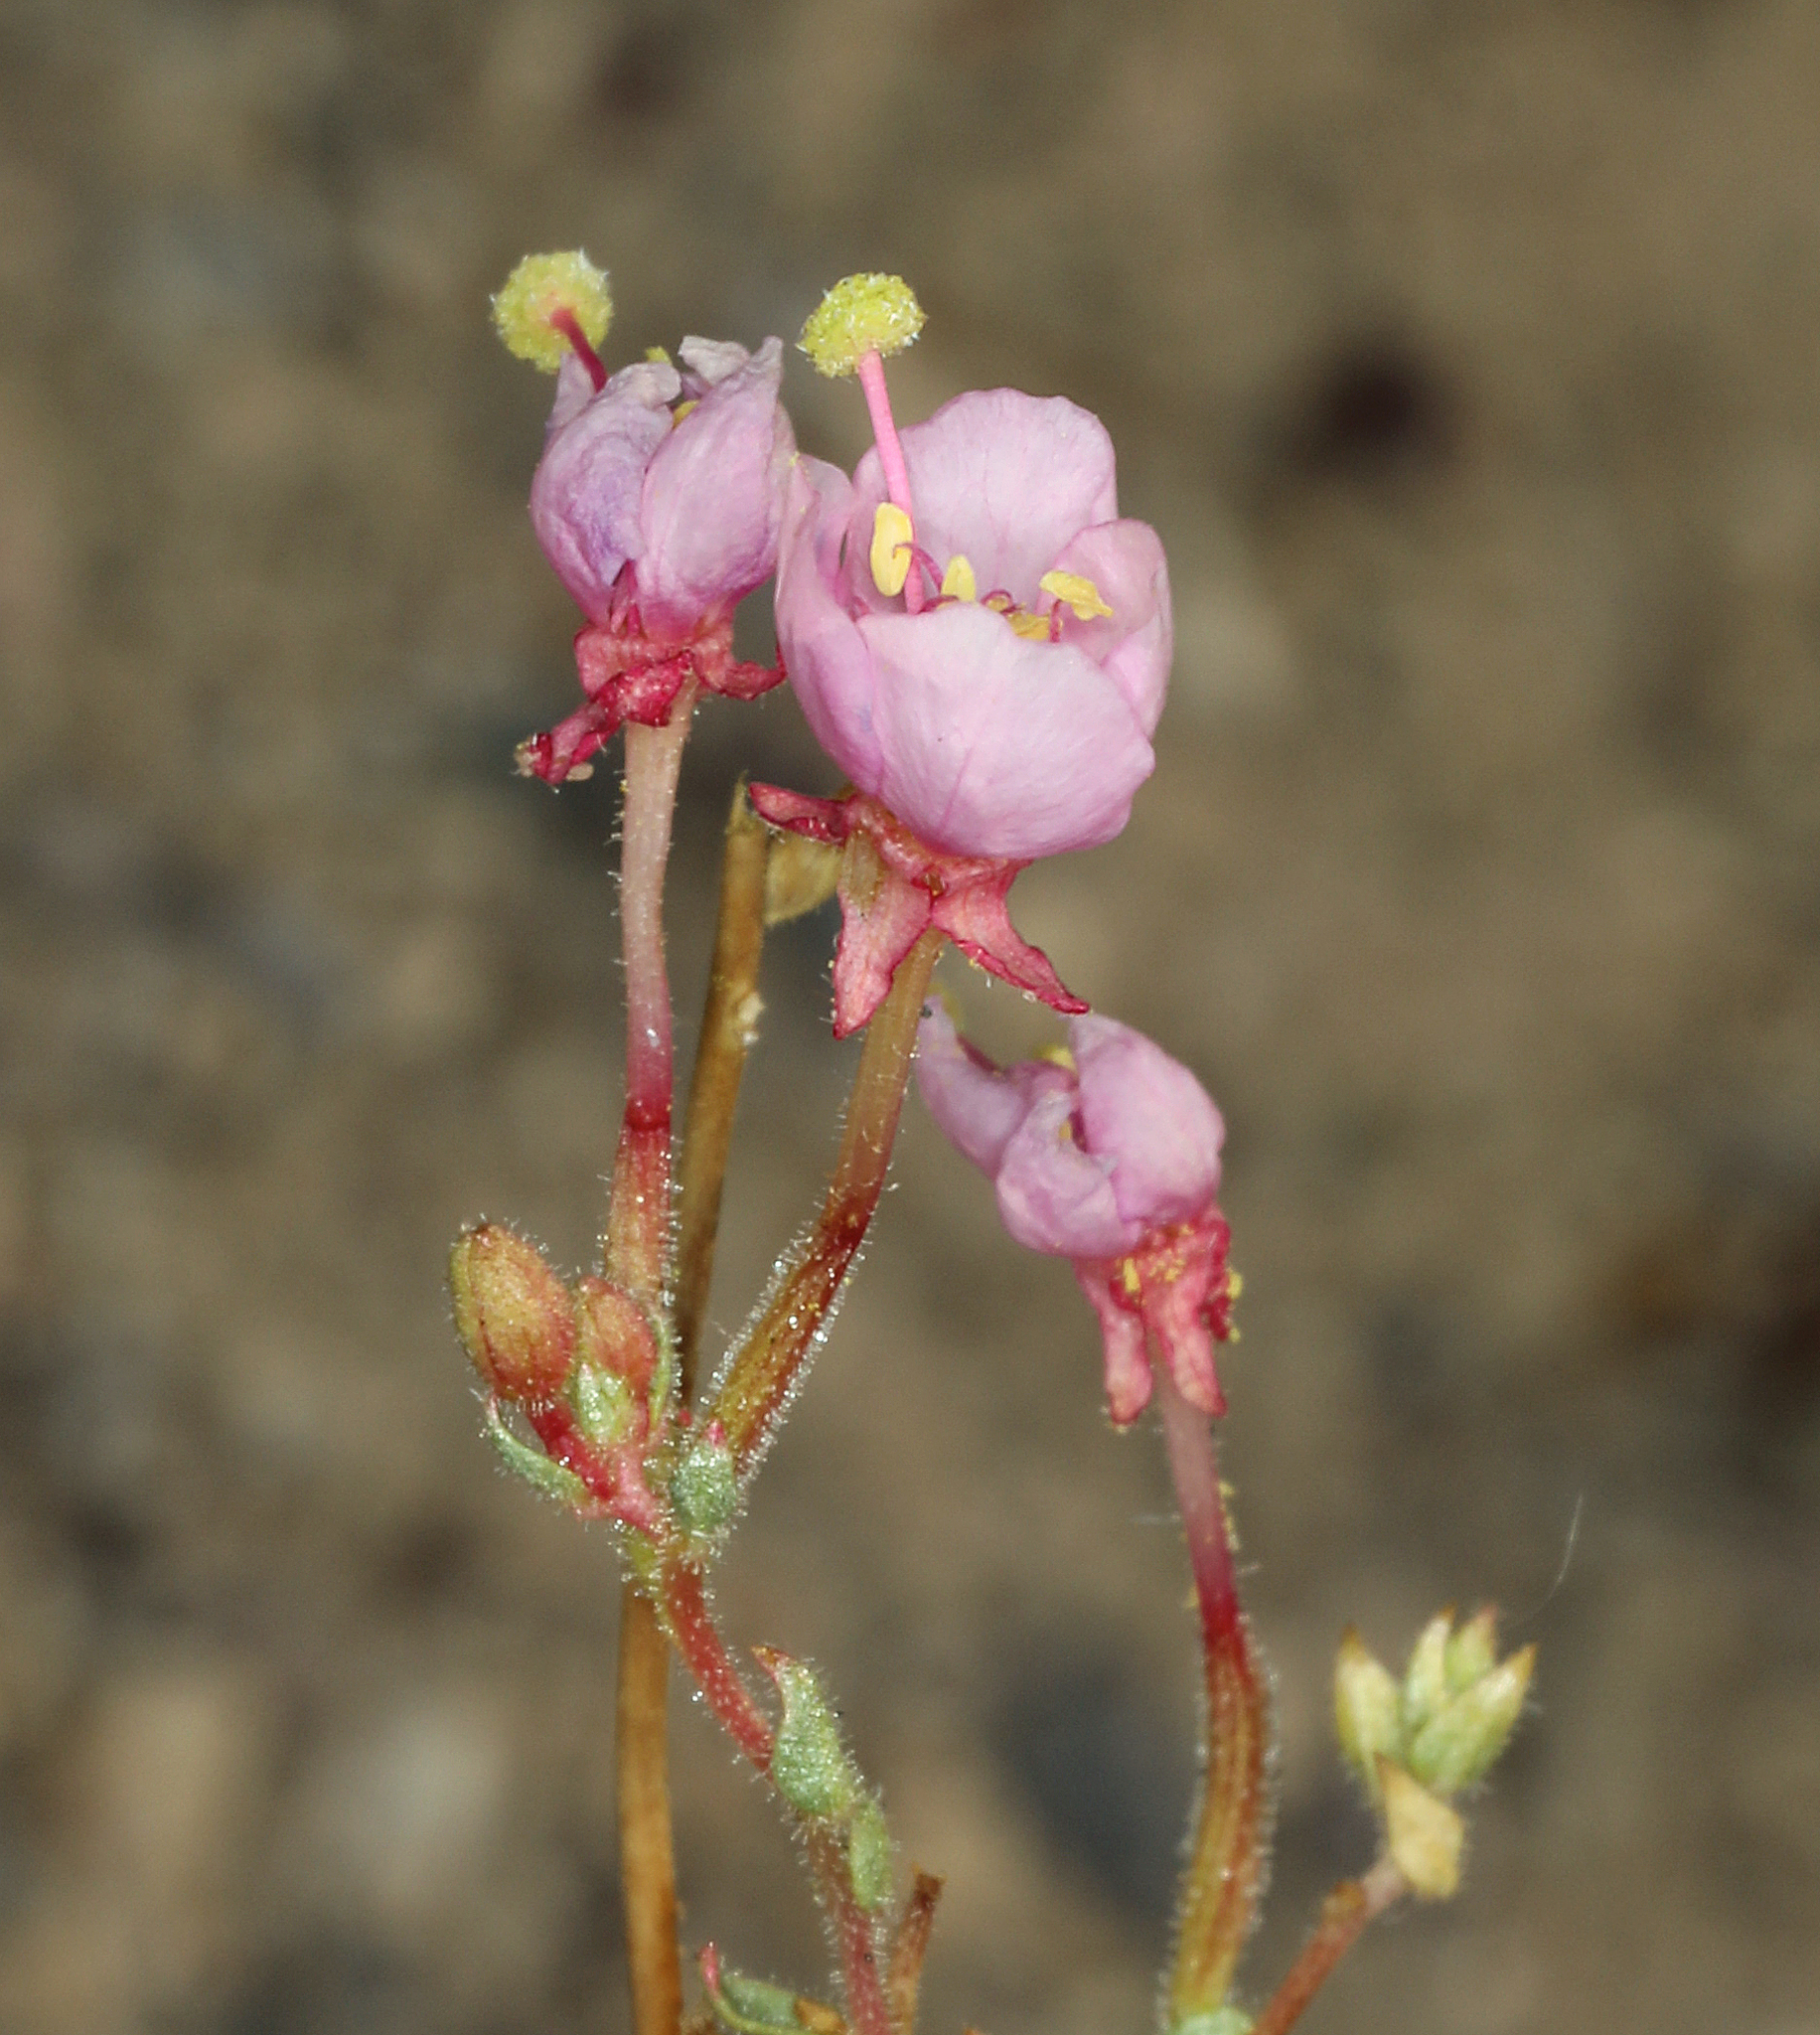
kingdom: Plantae
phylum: Tracheophyta
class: Magnoliopsida
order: Myrtales
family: Onagraceae
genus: Eremothera
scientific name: Eremothera boothii
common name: Booth's evening primrose
